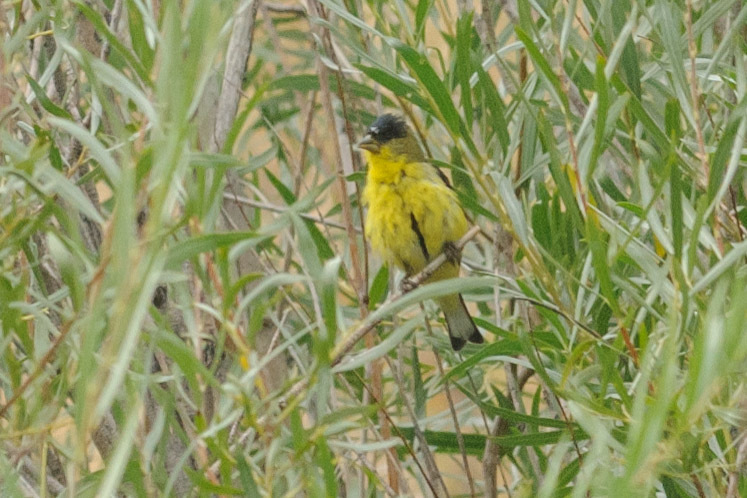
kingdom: Animalia
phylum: Chordata
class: Aves
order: Passeriformes
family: Fringillidae
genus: Spinus
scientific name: Spinus psaltria
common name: Lesser goldfinch
